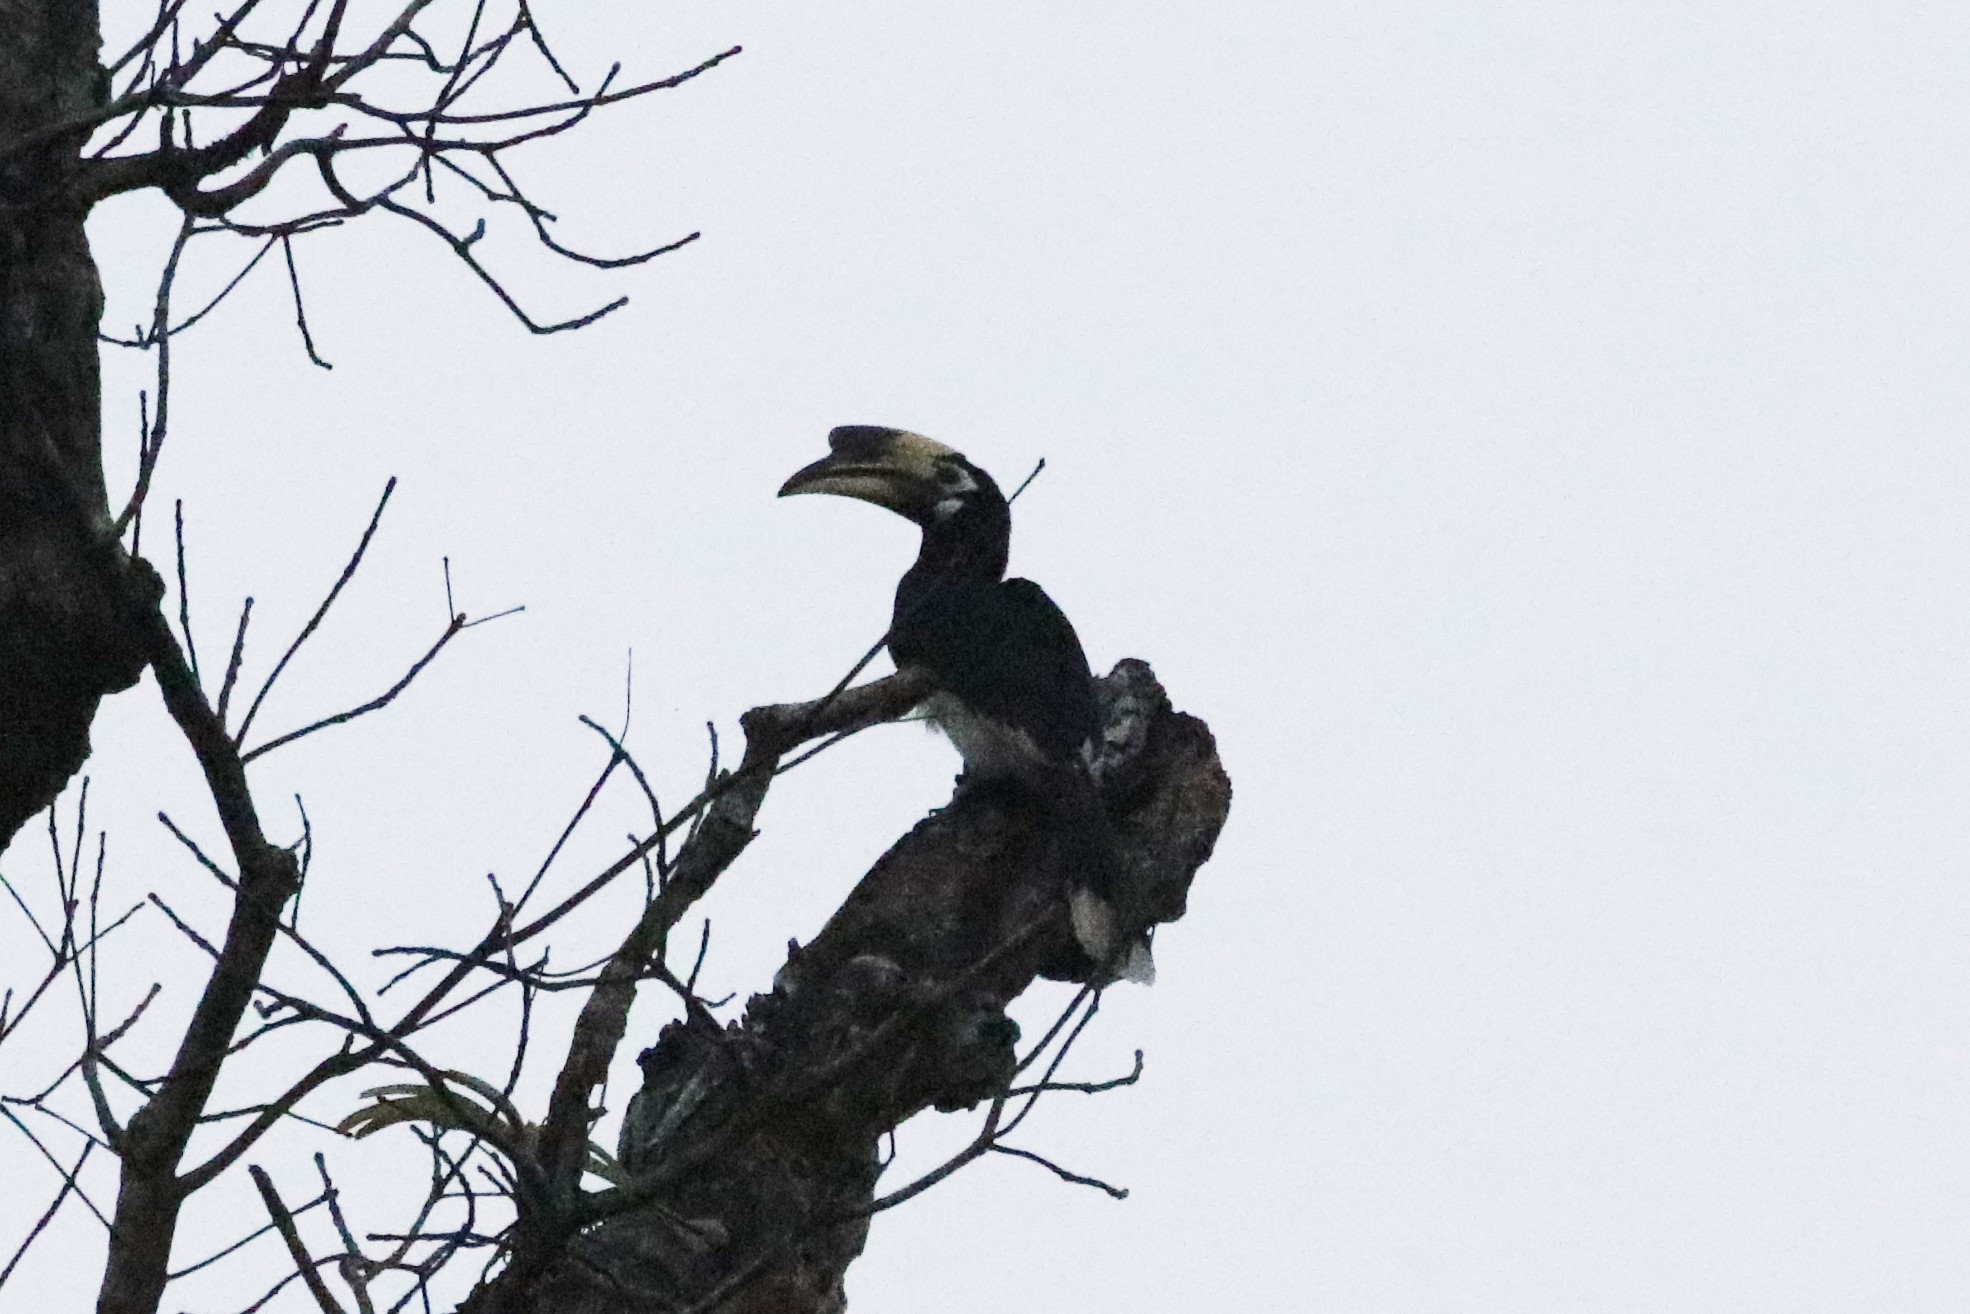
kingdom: Animalia
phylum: Chordata
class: Aves
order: Bucerotiformes
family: Bucerotidae
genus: Anthracoceros
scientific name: Anthracoceros albirostris
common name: Oriental pied-hornbill
